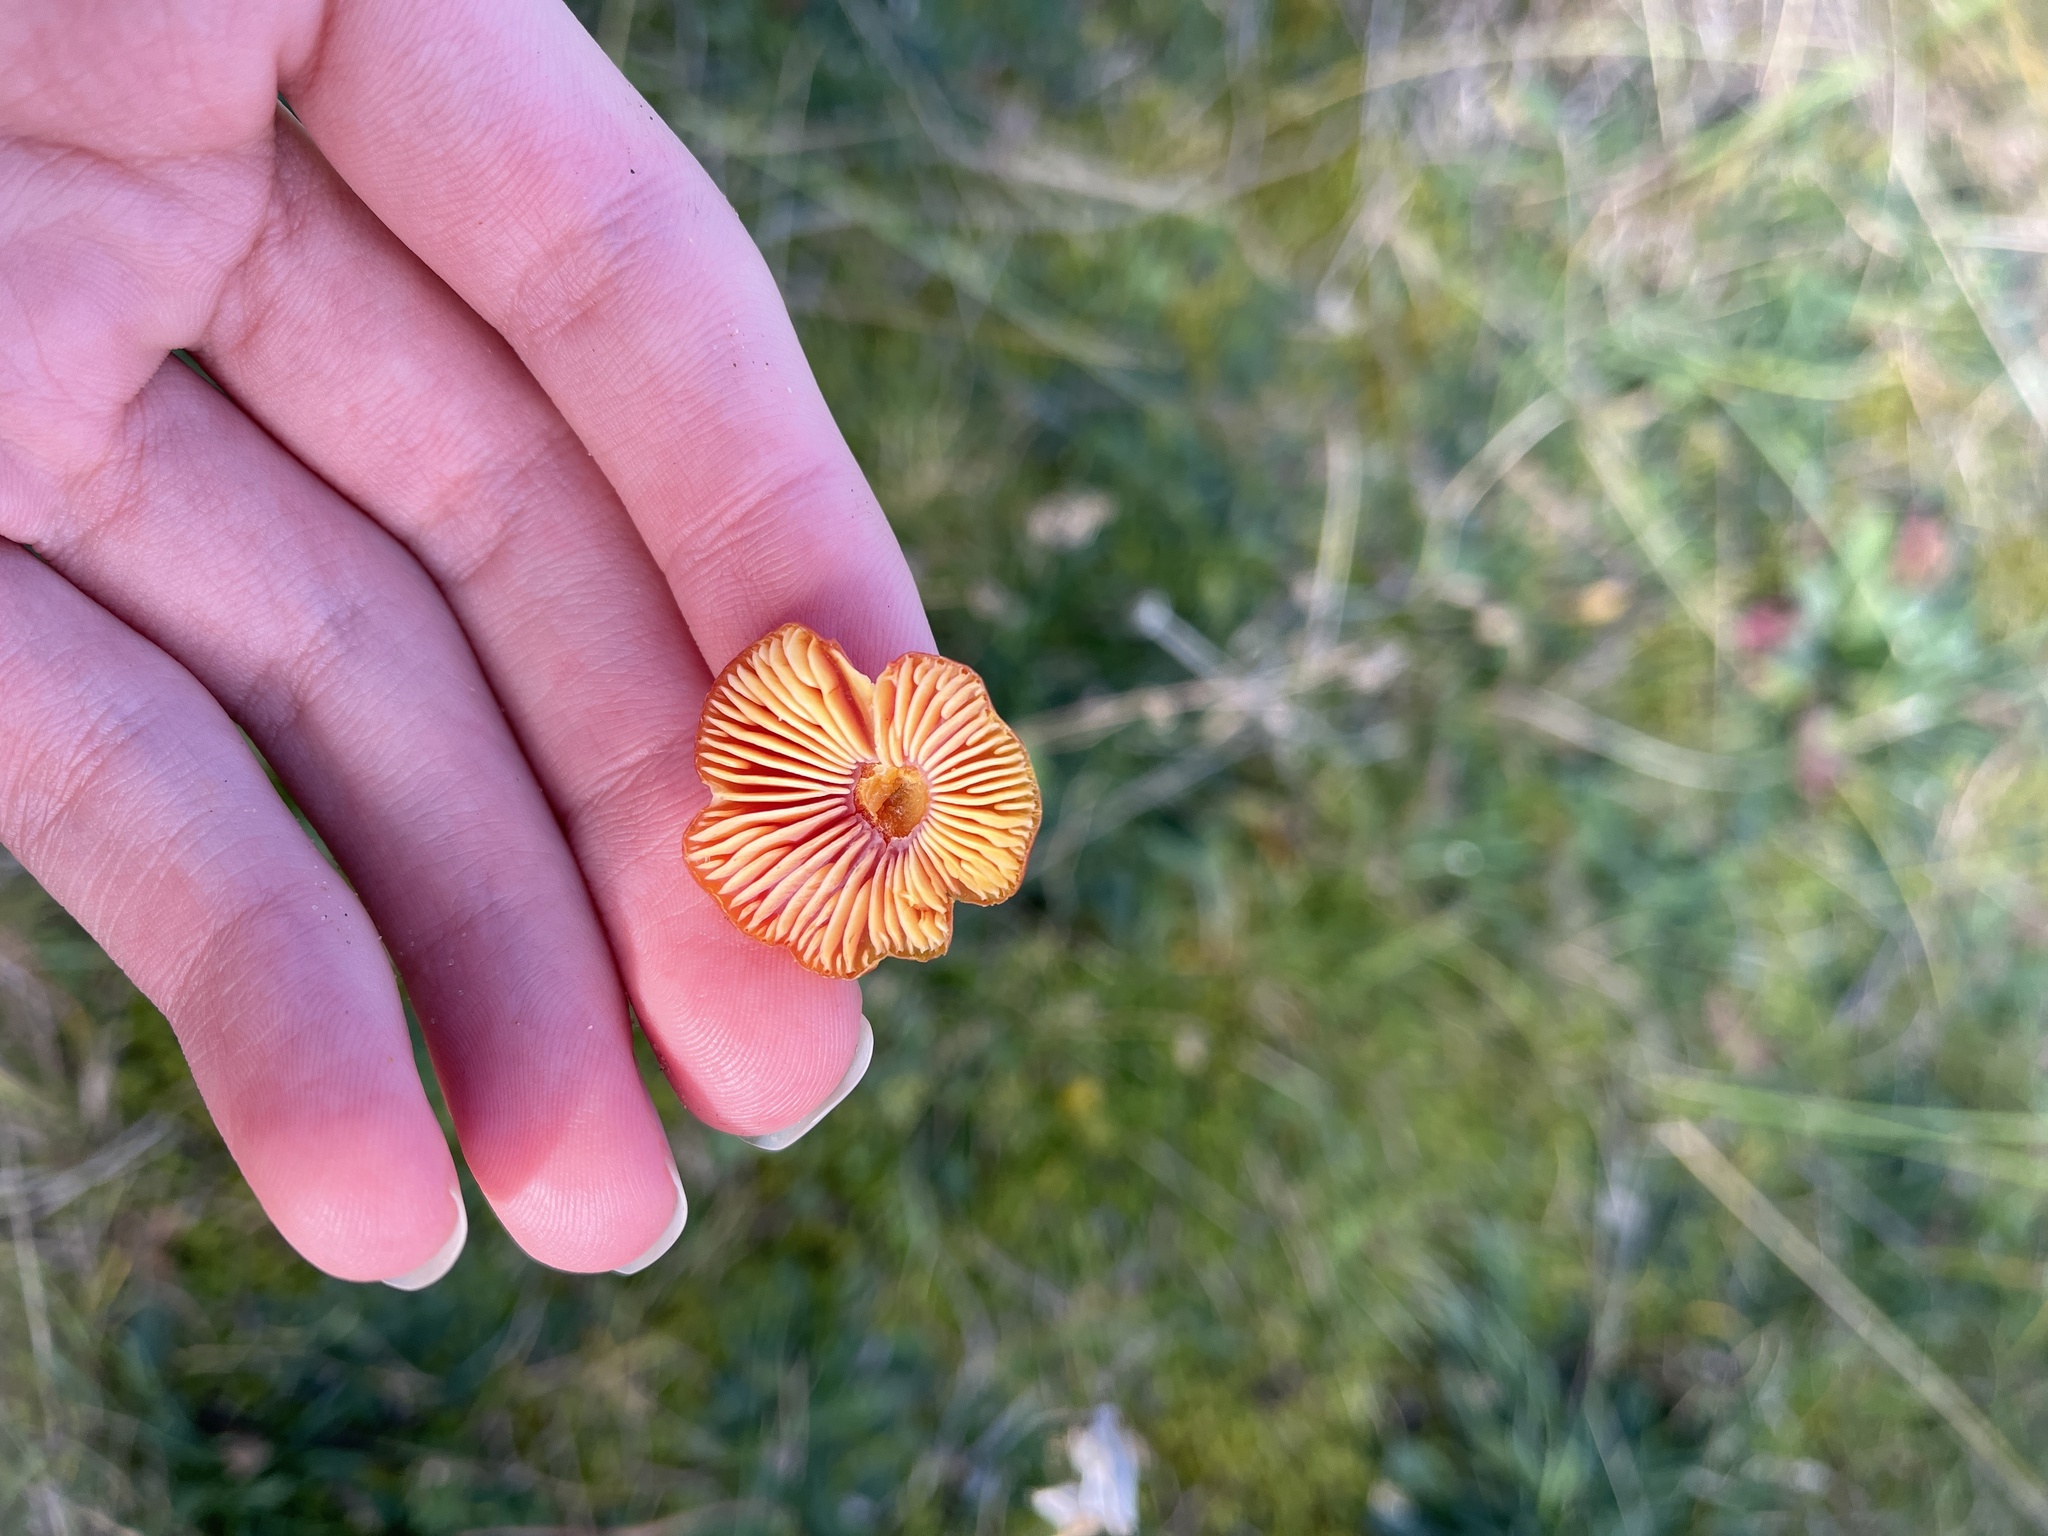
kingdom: Fungi
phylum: Basidiomycota
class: Agaricomycetes
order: Agaricales
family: Hygrophoraceae
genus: Hygrocybe
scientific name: Hygrocybe conica
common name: Blackening wax-cap
